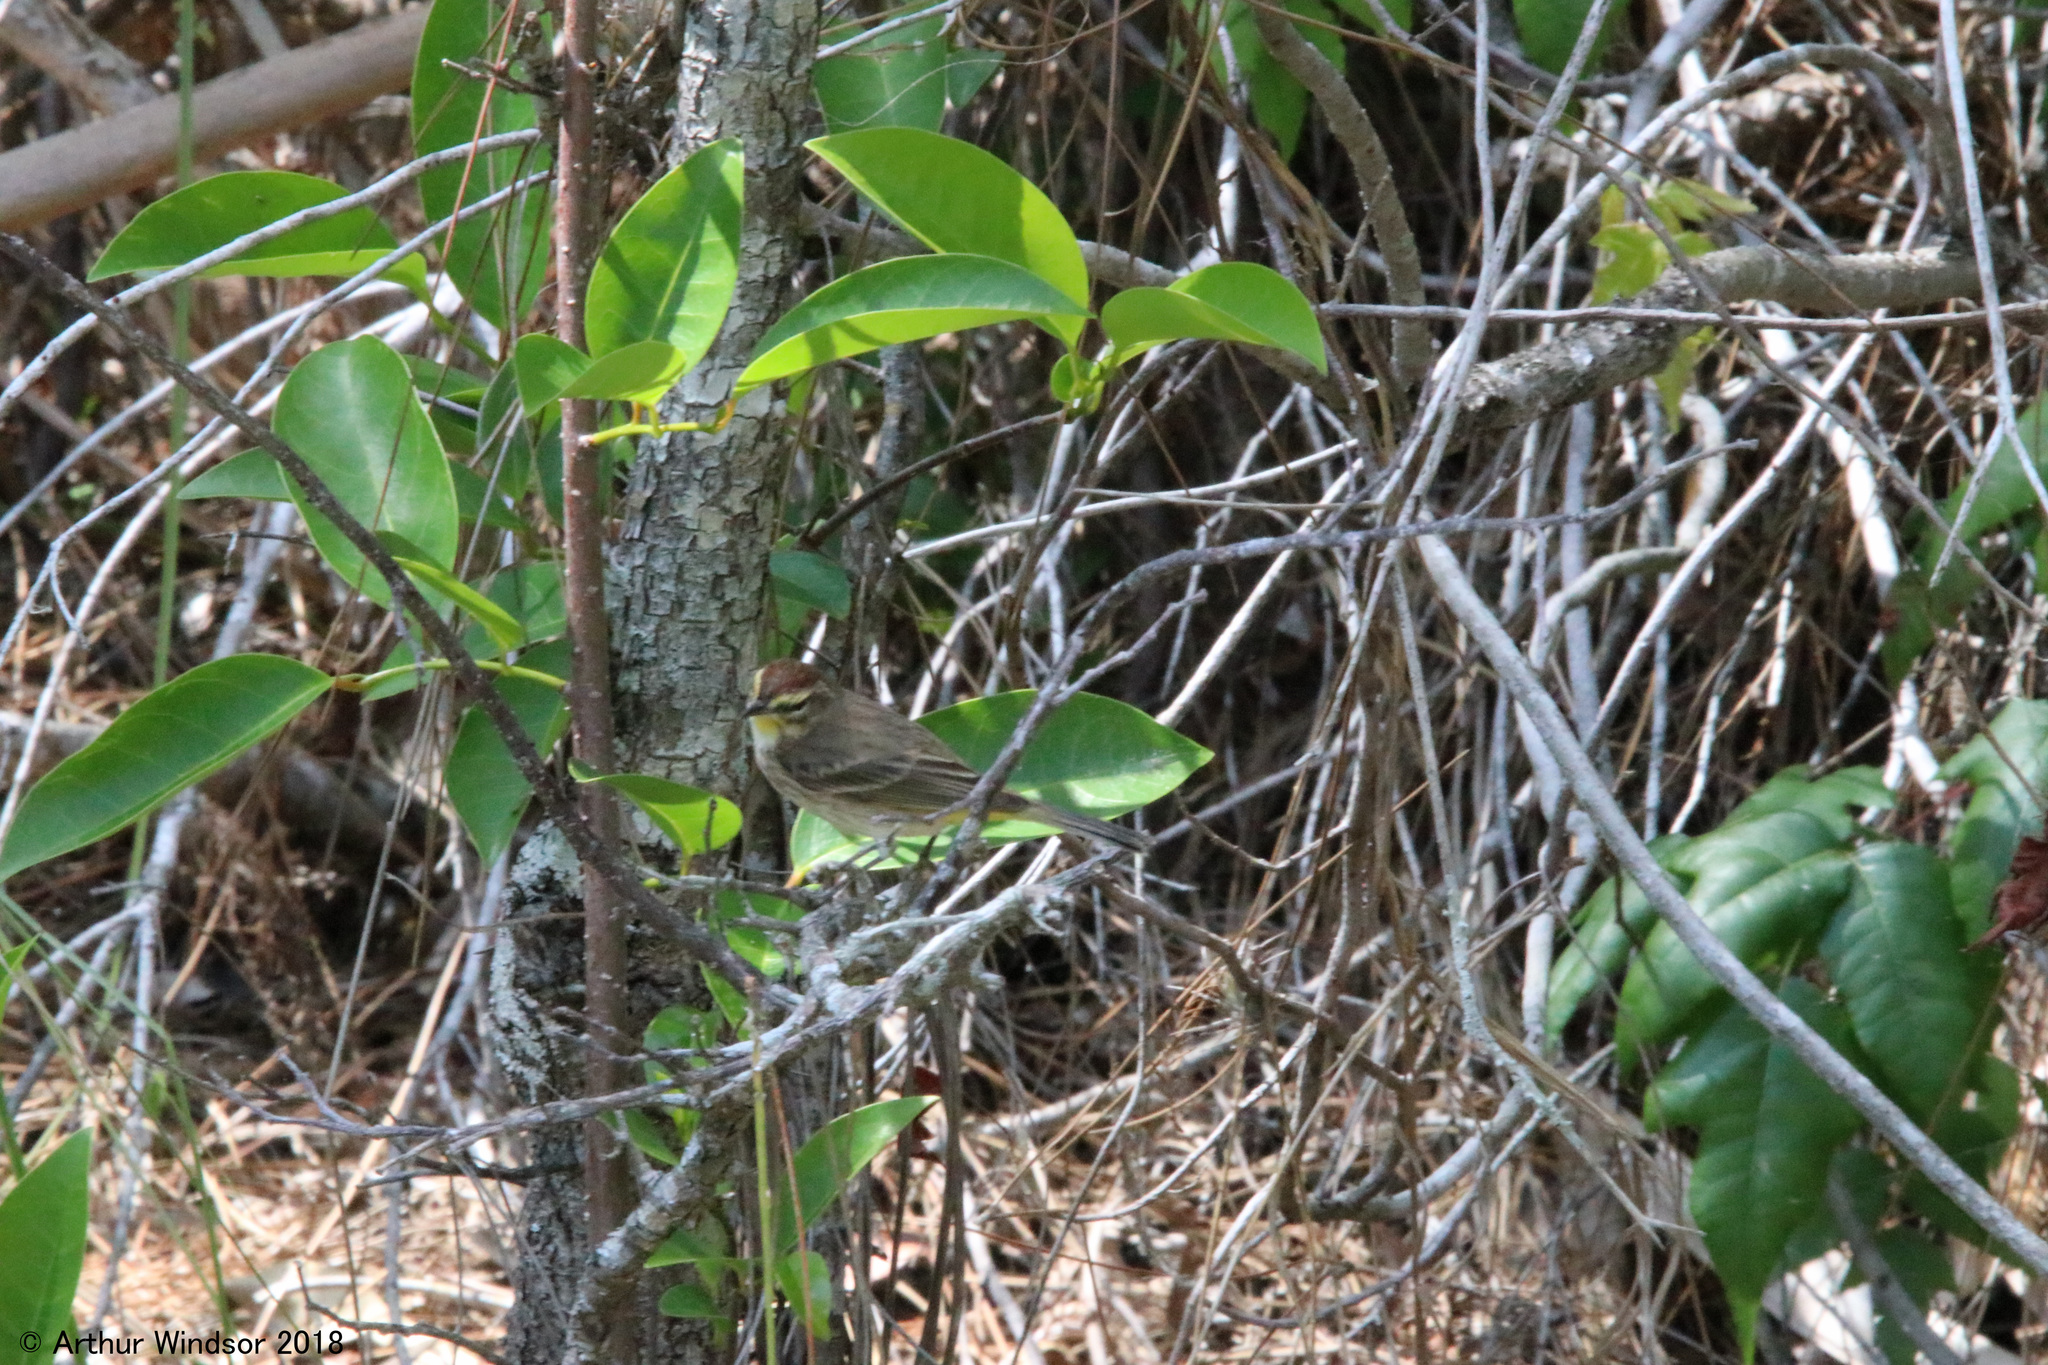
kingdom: Animalia
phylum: Chordata
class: Aves
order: Passeriformes
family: Parulidae
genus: Setophaga
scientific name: Setophaga palmarum
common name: Palm warbler
